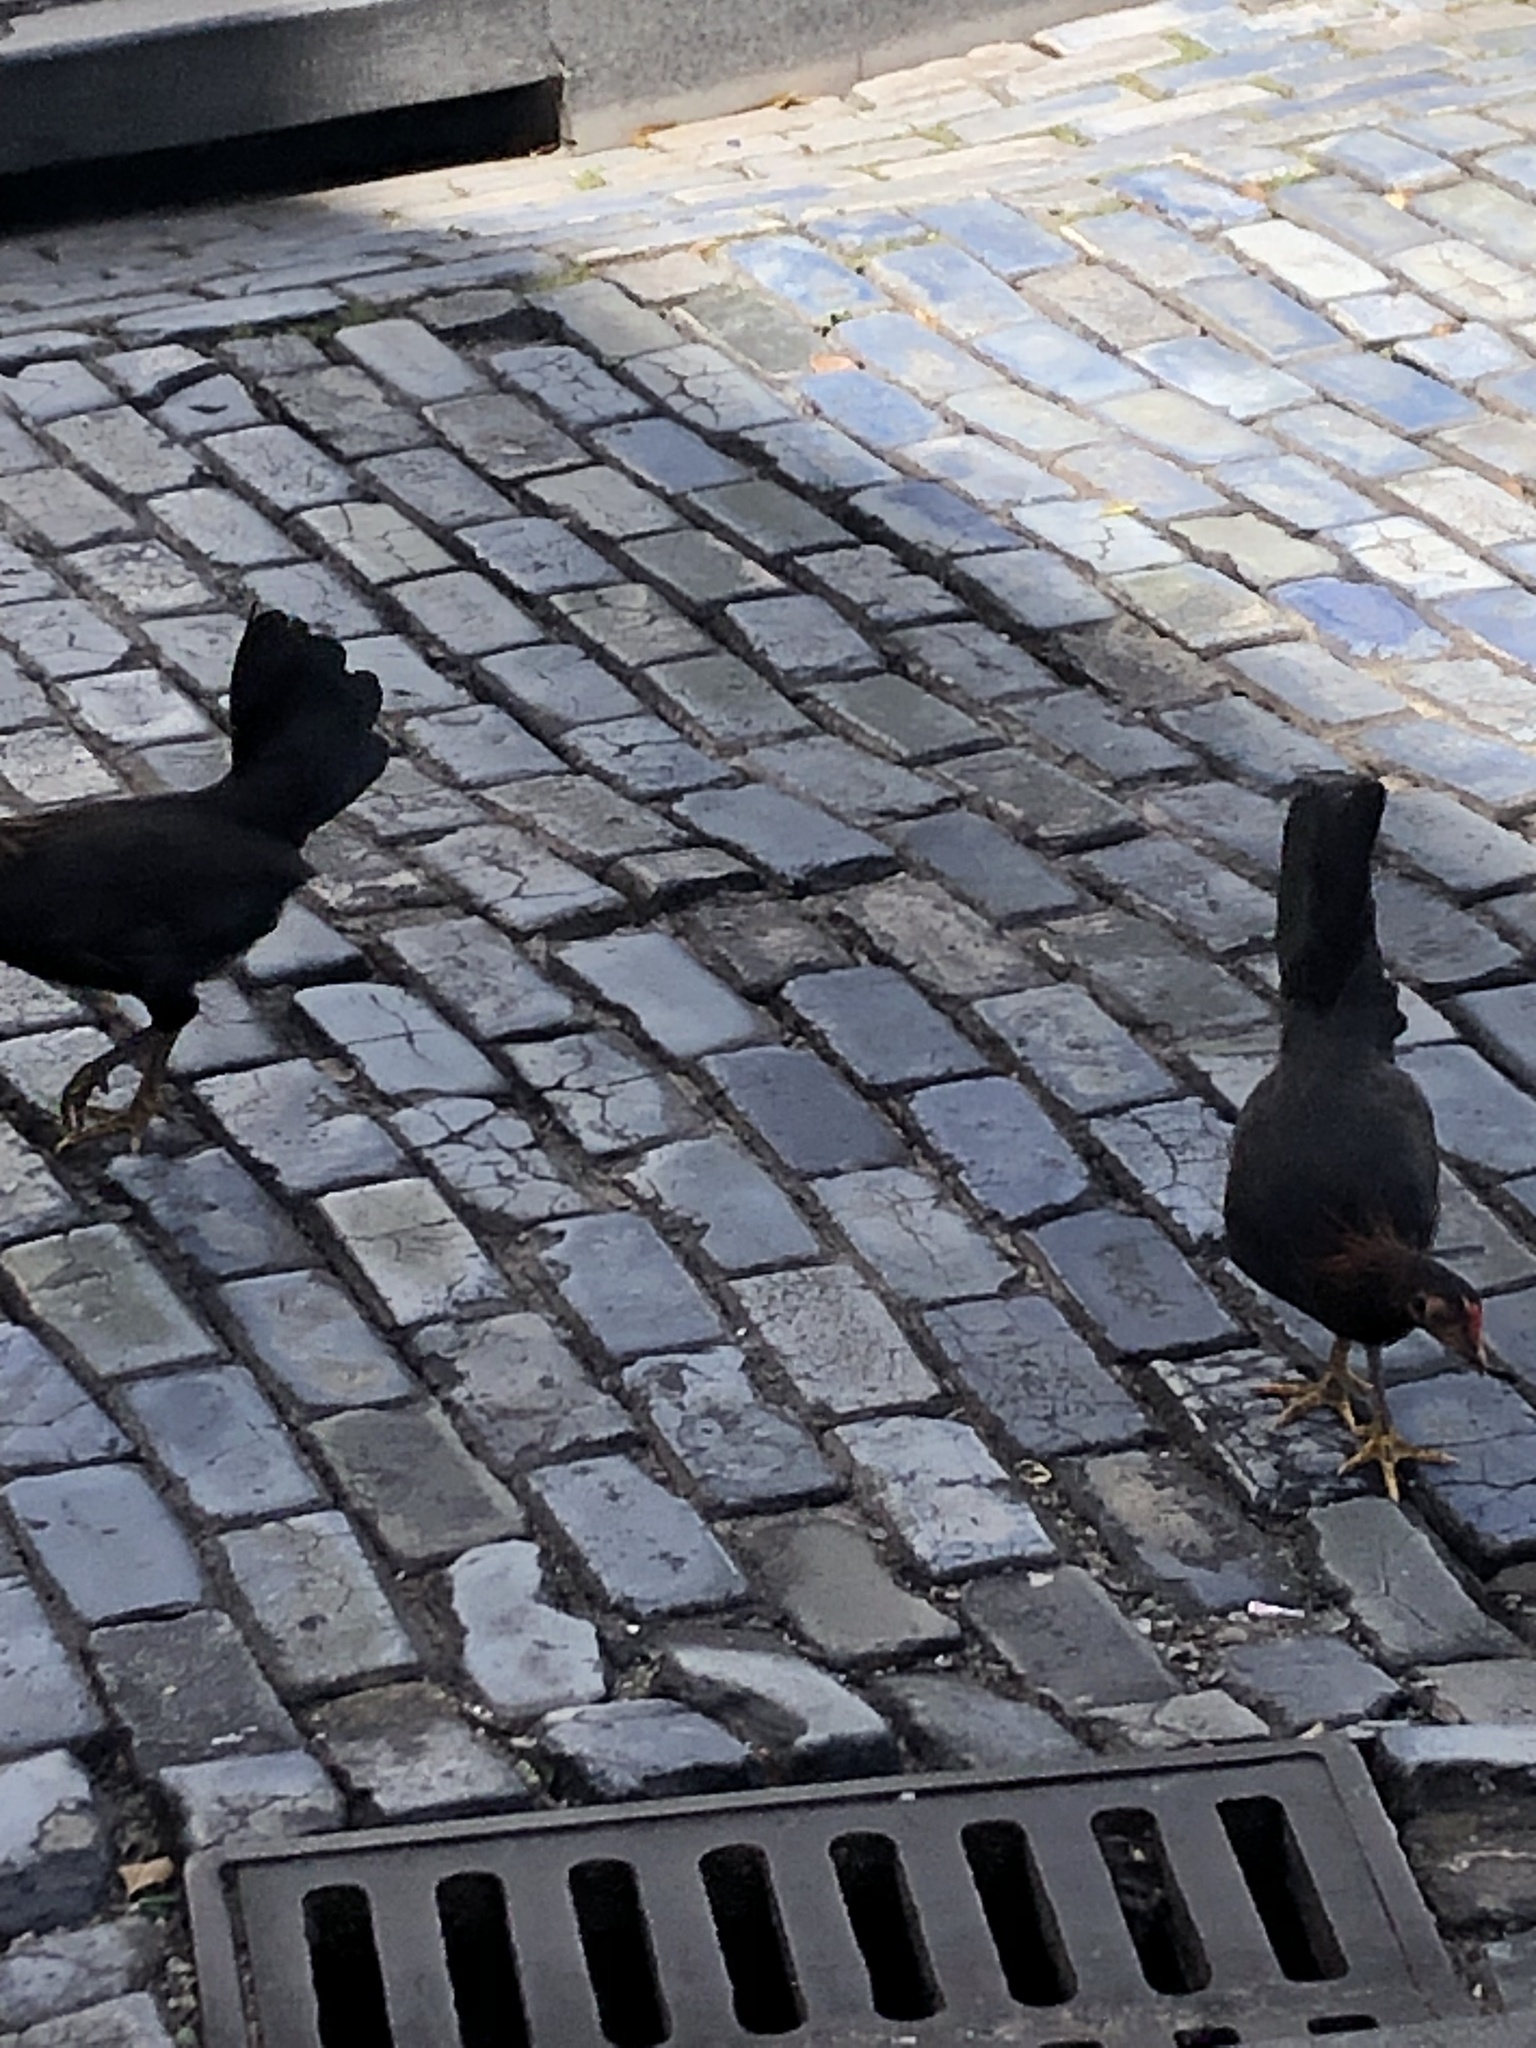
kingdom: Animalia
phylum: Chordata
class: Aves
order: Galliformes
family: Phasianidae
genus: Gallus
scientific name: Gallus gallus
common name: Red junglefowl
